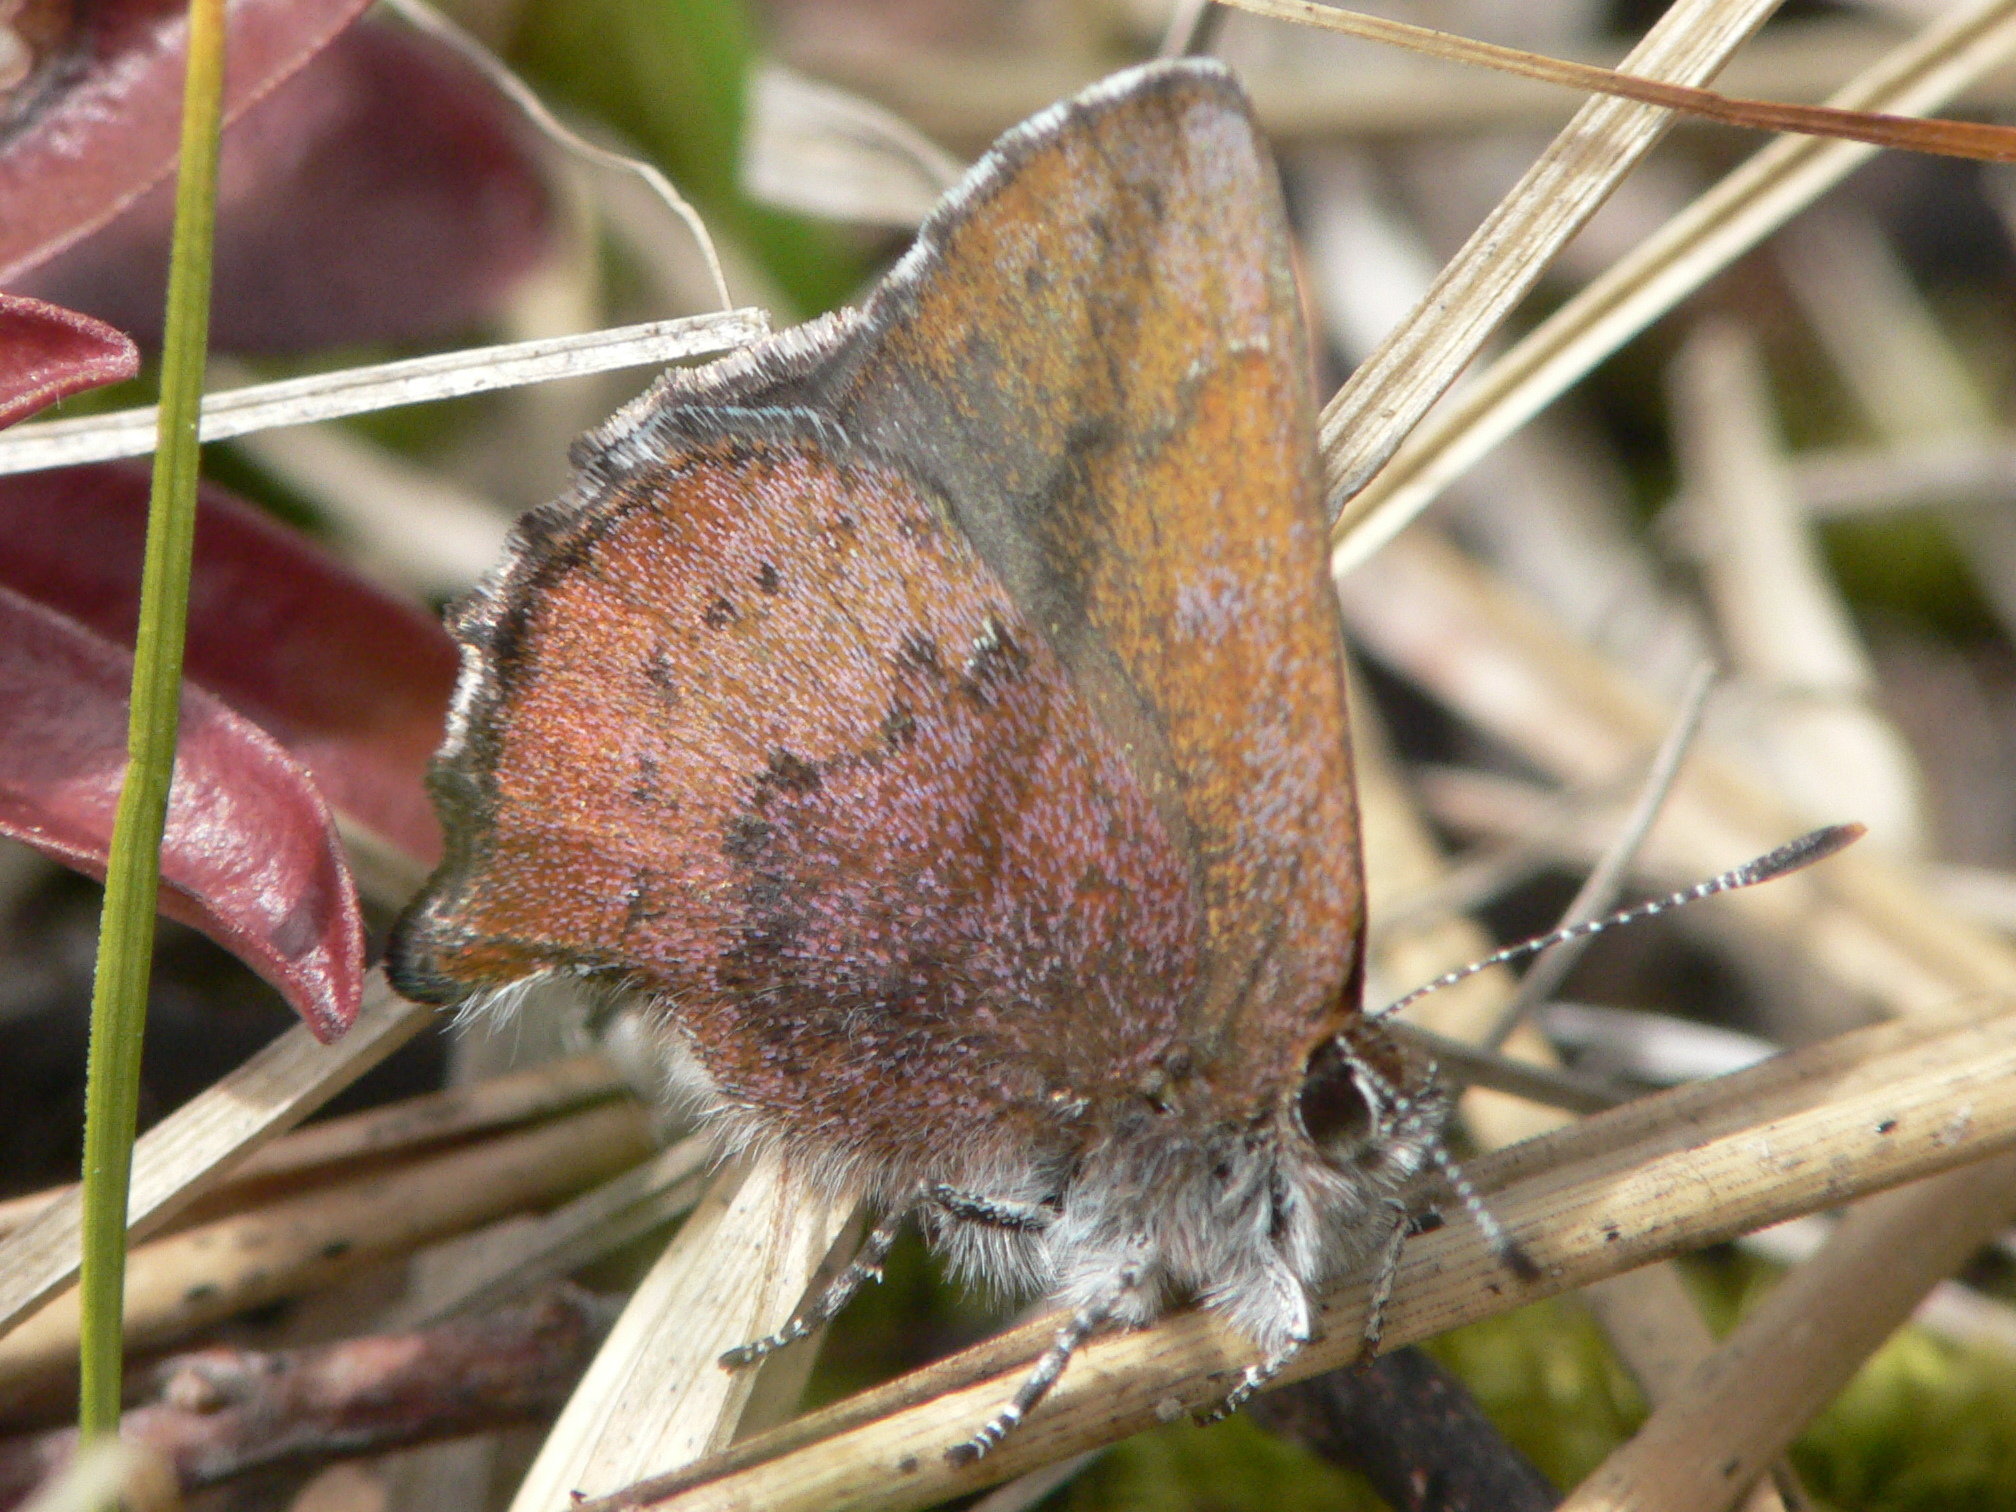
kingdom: Animalia
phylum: Arthropoda
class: Insecta
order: Lepidoptera
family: Lycaenidae
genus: Incisalia
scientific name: Incisalia irioides
